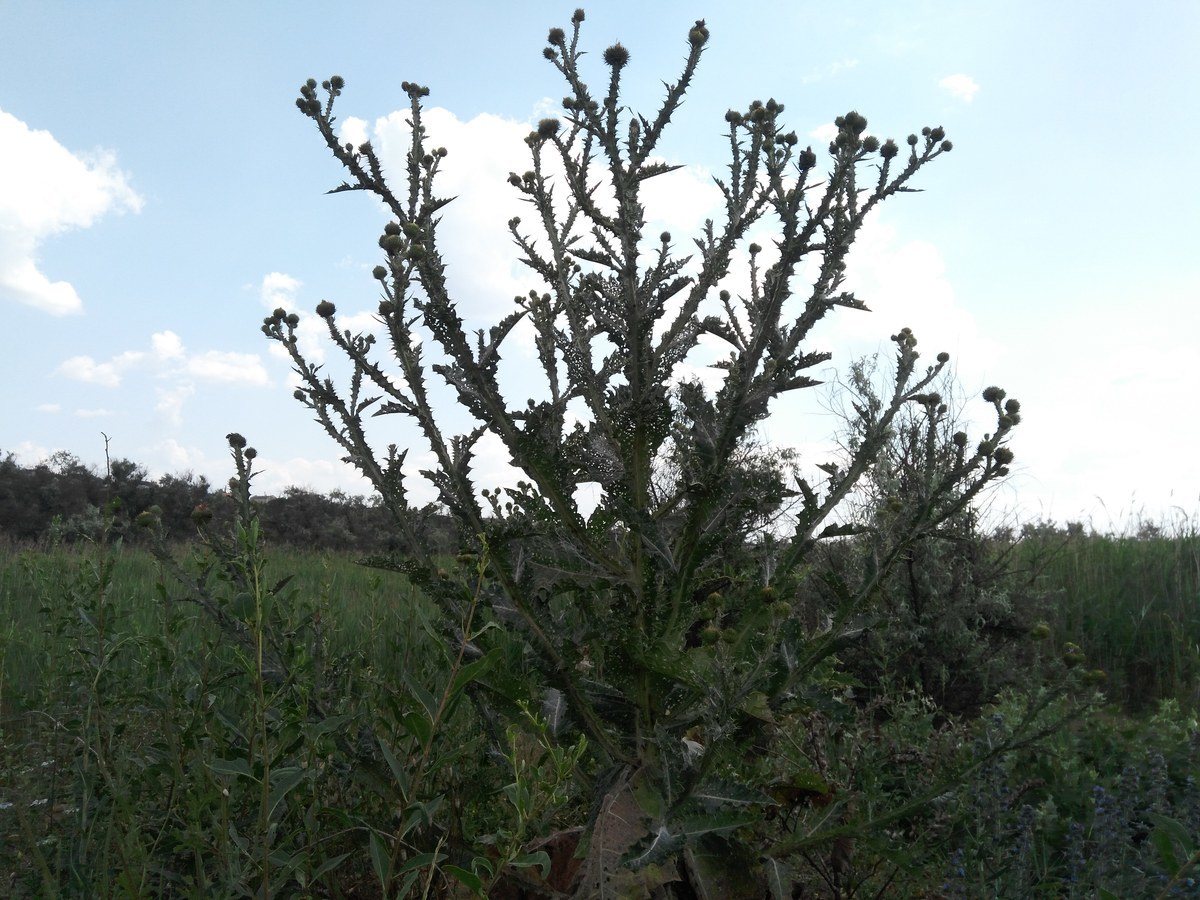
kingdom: Plantae
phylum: Tracheophyta
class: Magnoliopsida
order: Asterales
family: Asteraceae
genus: Onopordum
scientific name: Onopordum acanthium
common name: Scotch thistle
